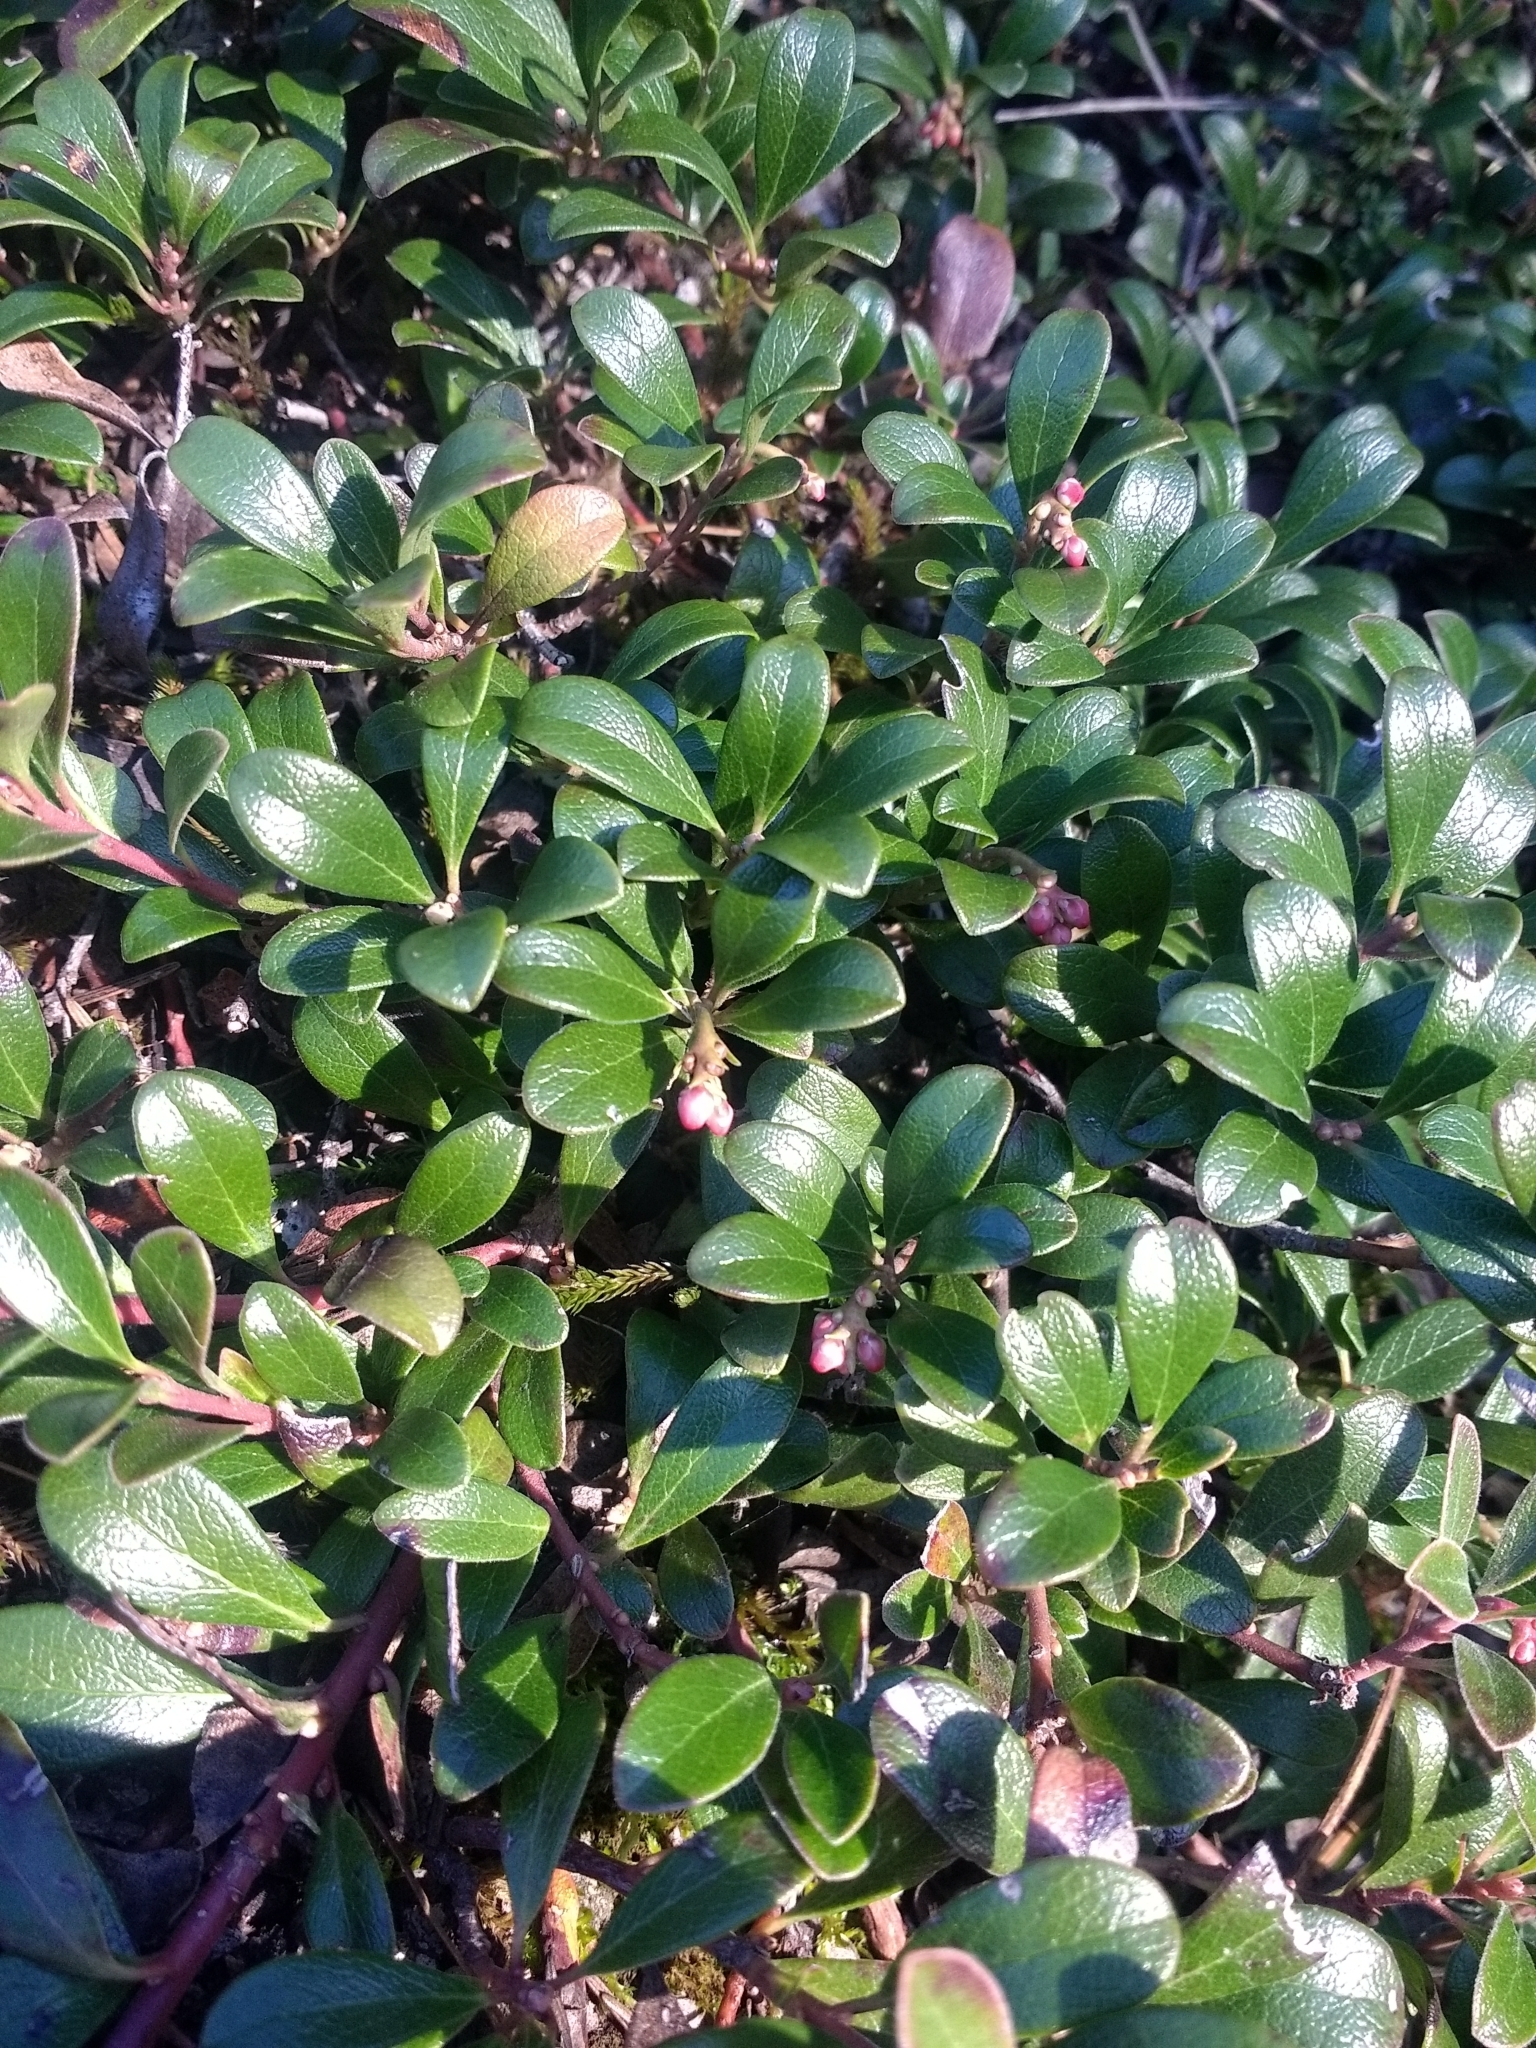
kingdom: Plantae
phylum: Tracheophyta
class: Magnoliopsida
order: Ericales
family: Ericaceae
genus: Arctostaphylos
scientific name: Arctostaphylos uva-ursi
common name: Bearberry
